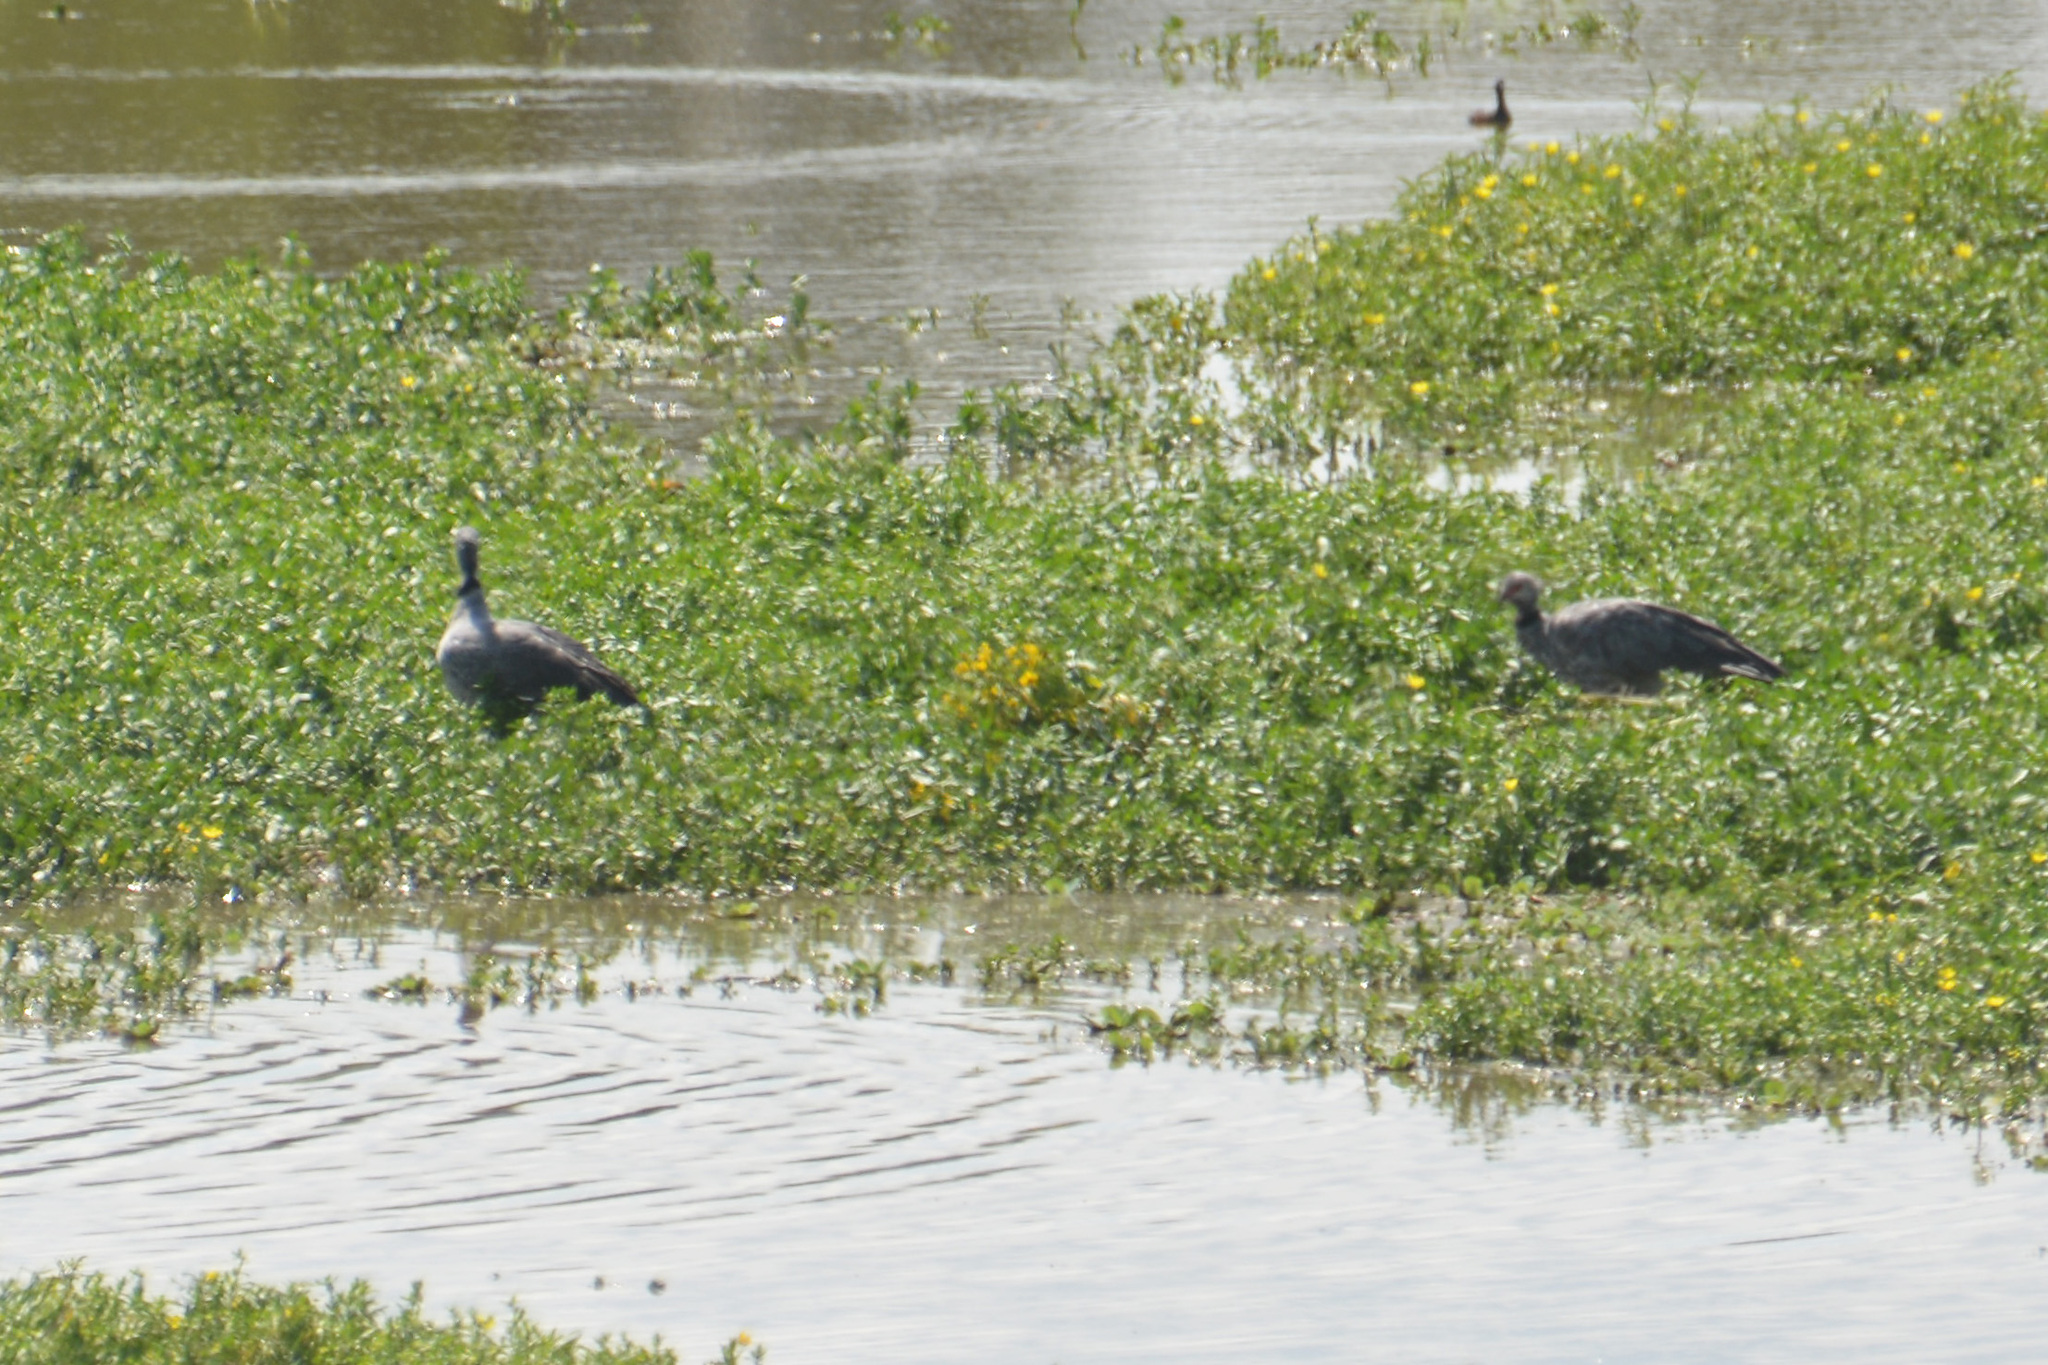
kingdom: Animalia
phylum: Chordata
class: Aves
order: Anseriformes
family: Anhimidae
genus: Chauna
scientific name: Chauna torquata
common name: Southern screamer
